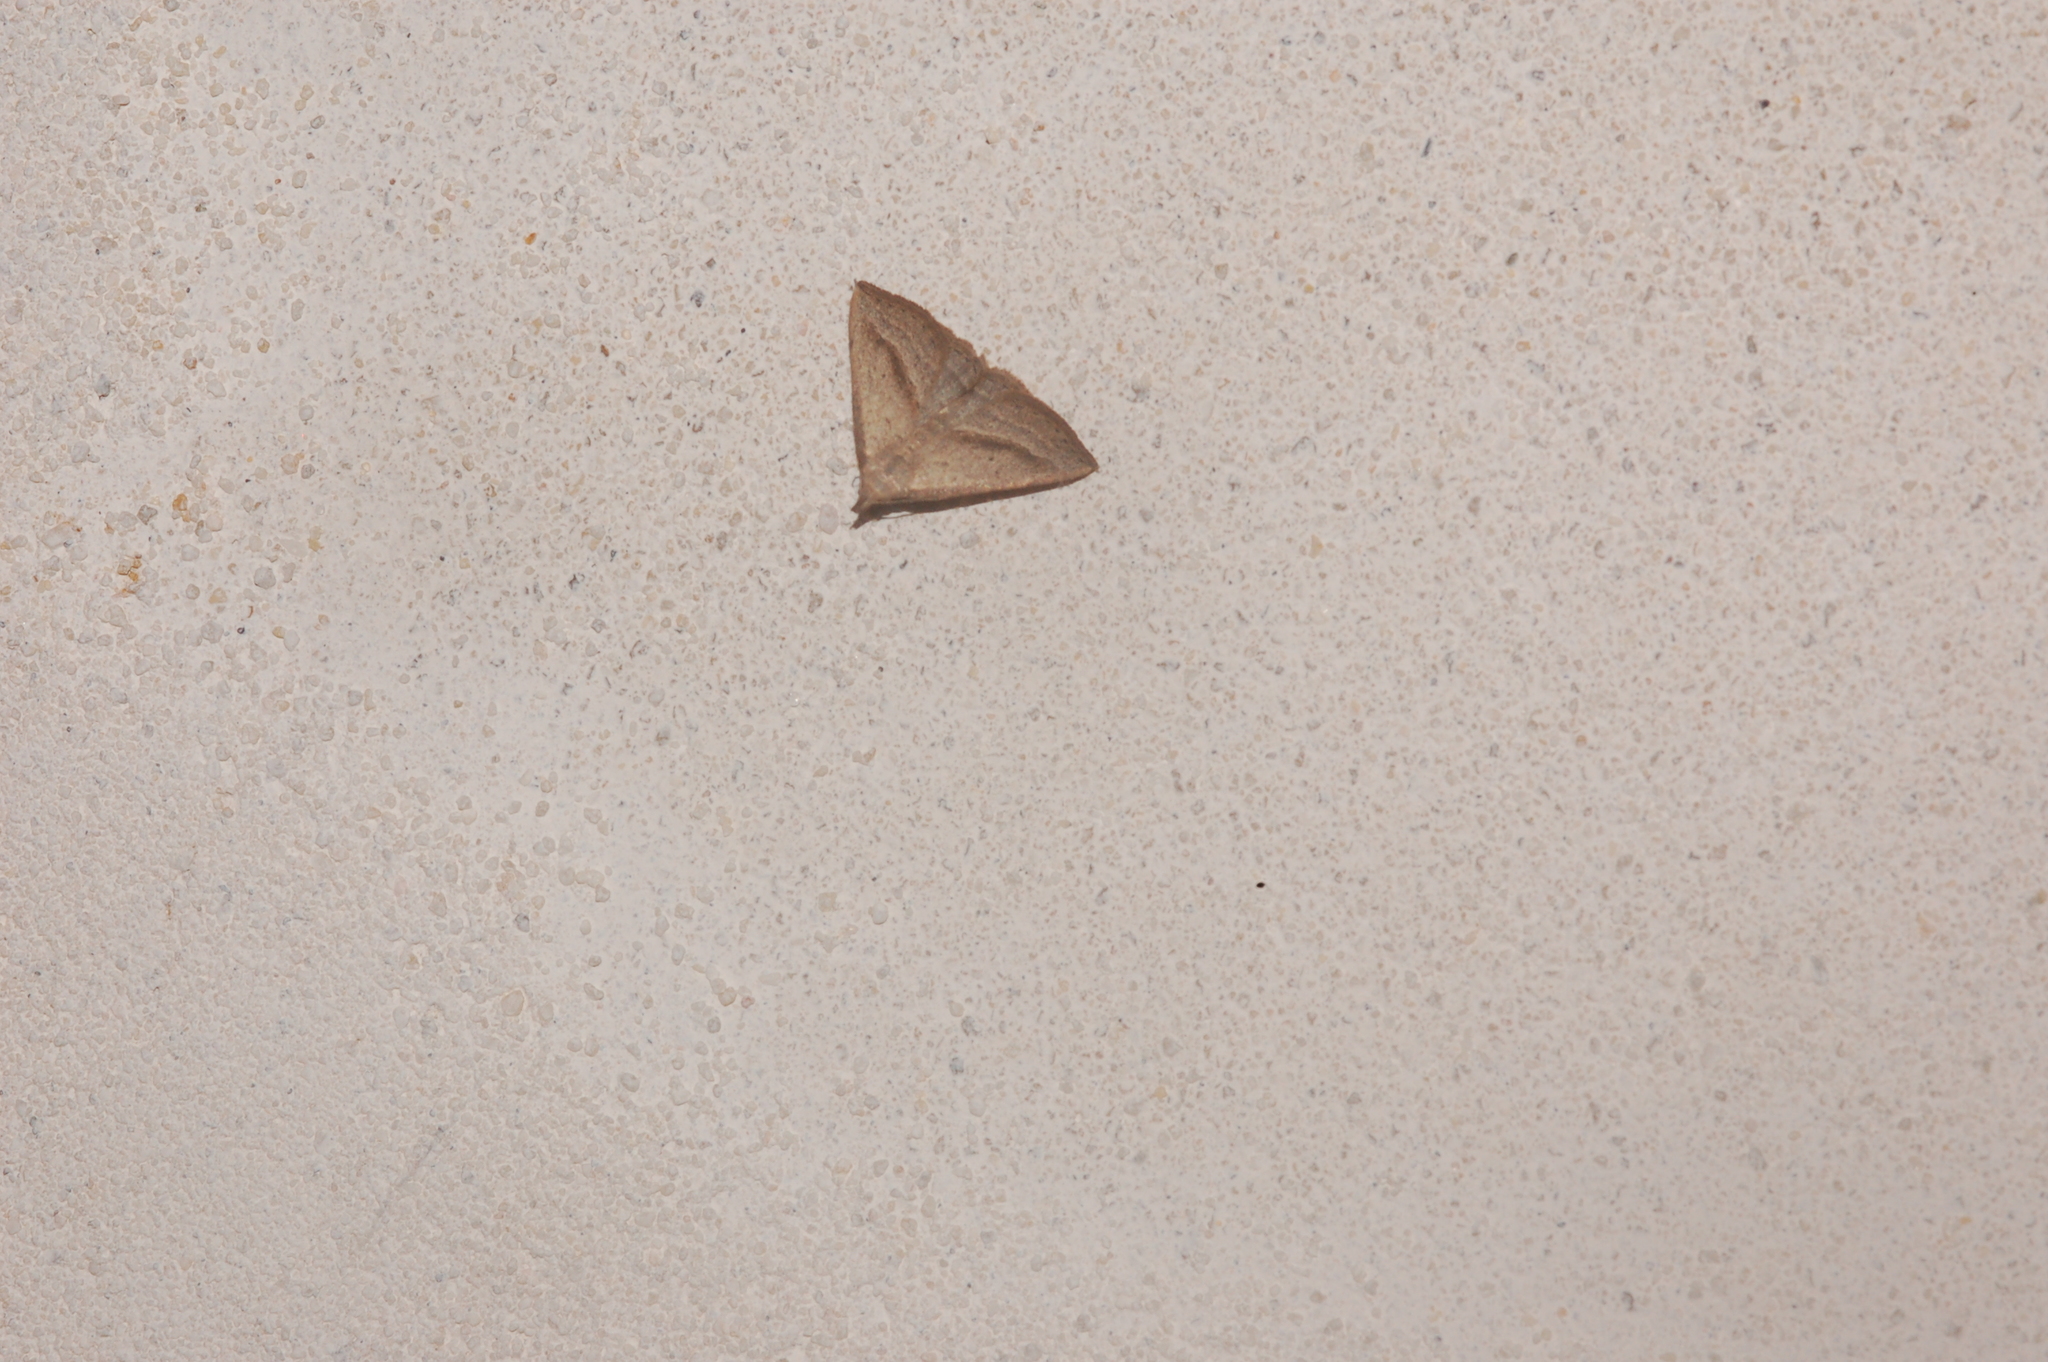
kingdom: Animalia
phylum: Arthropoda
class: Insecta
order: Lepidoptera
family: Erebidae
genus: Macrochilo
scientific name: Macrochilo hypocritalis
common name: Twin-dotted owlet
